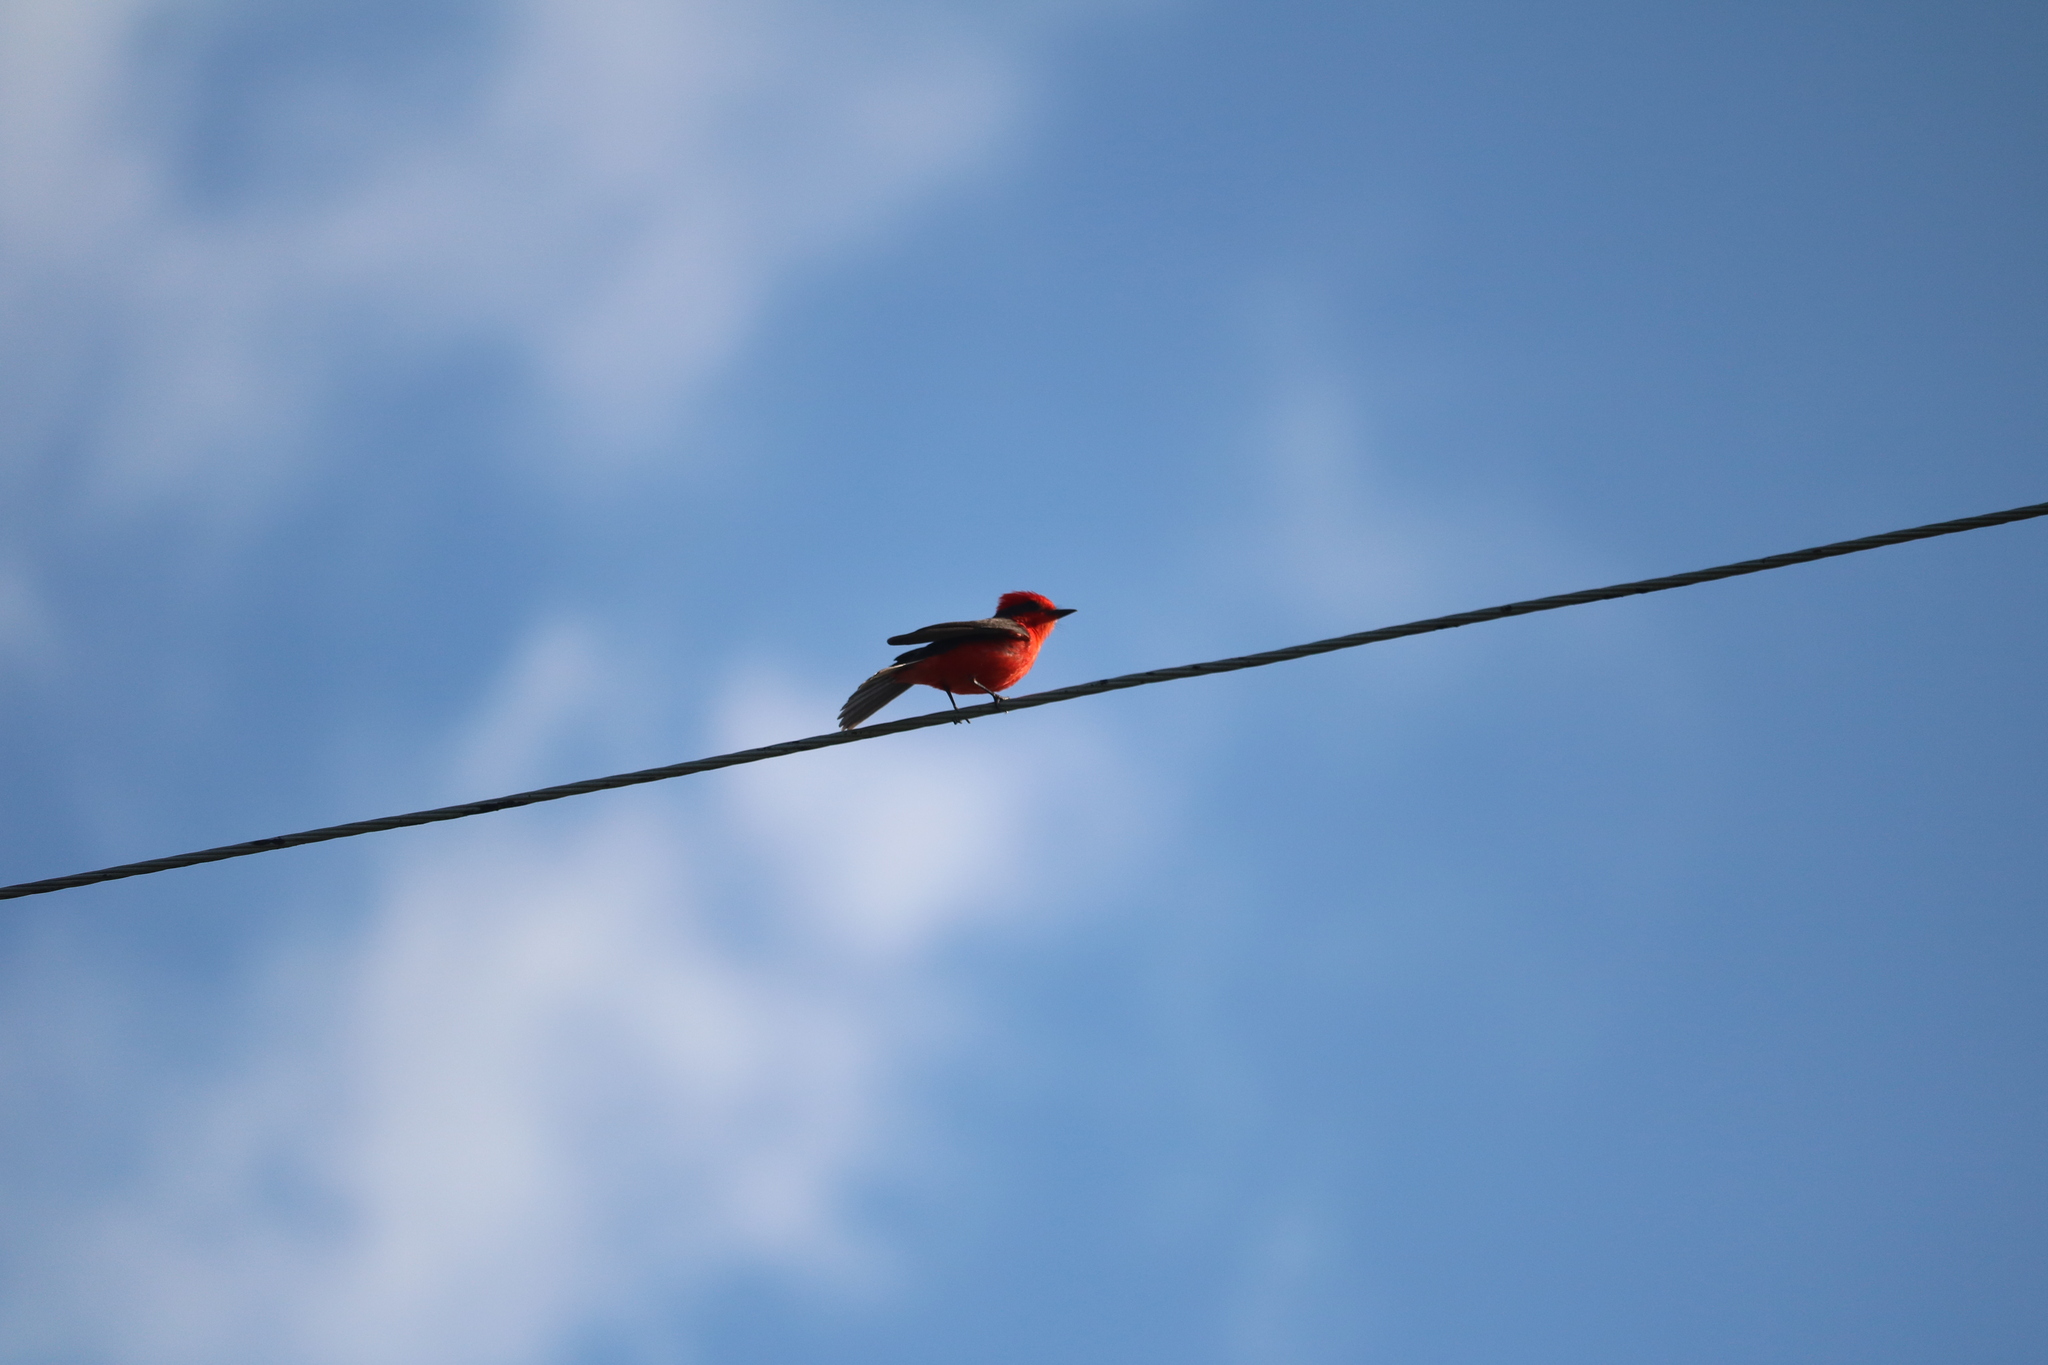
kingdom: Animalia
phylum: Chordata
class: Aves
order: Passeriformes
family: Tyrannidae
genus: Pyrocephalus
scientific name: Pyrocephalus rubinus
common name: Vermilion flycatcher
